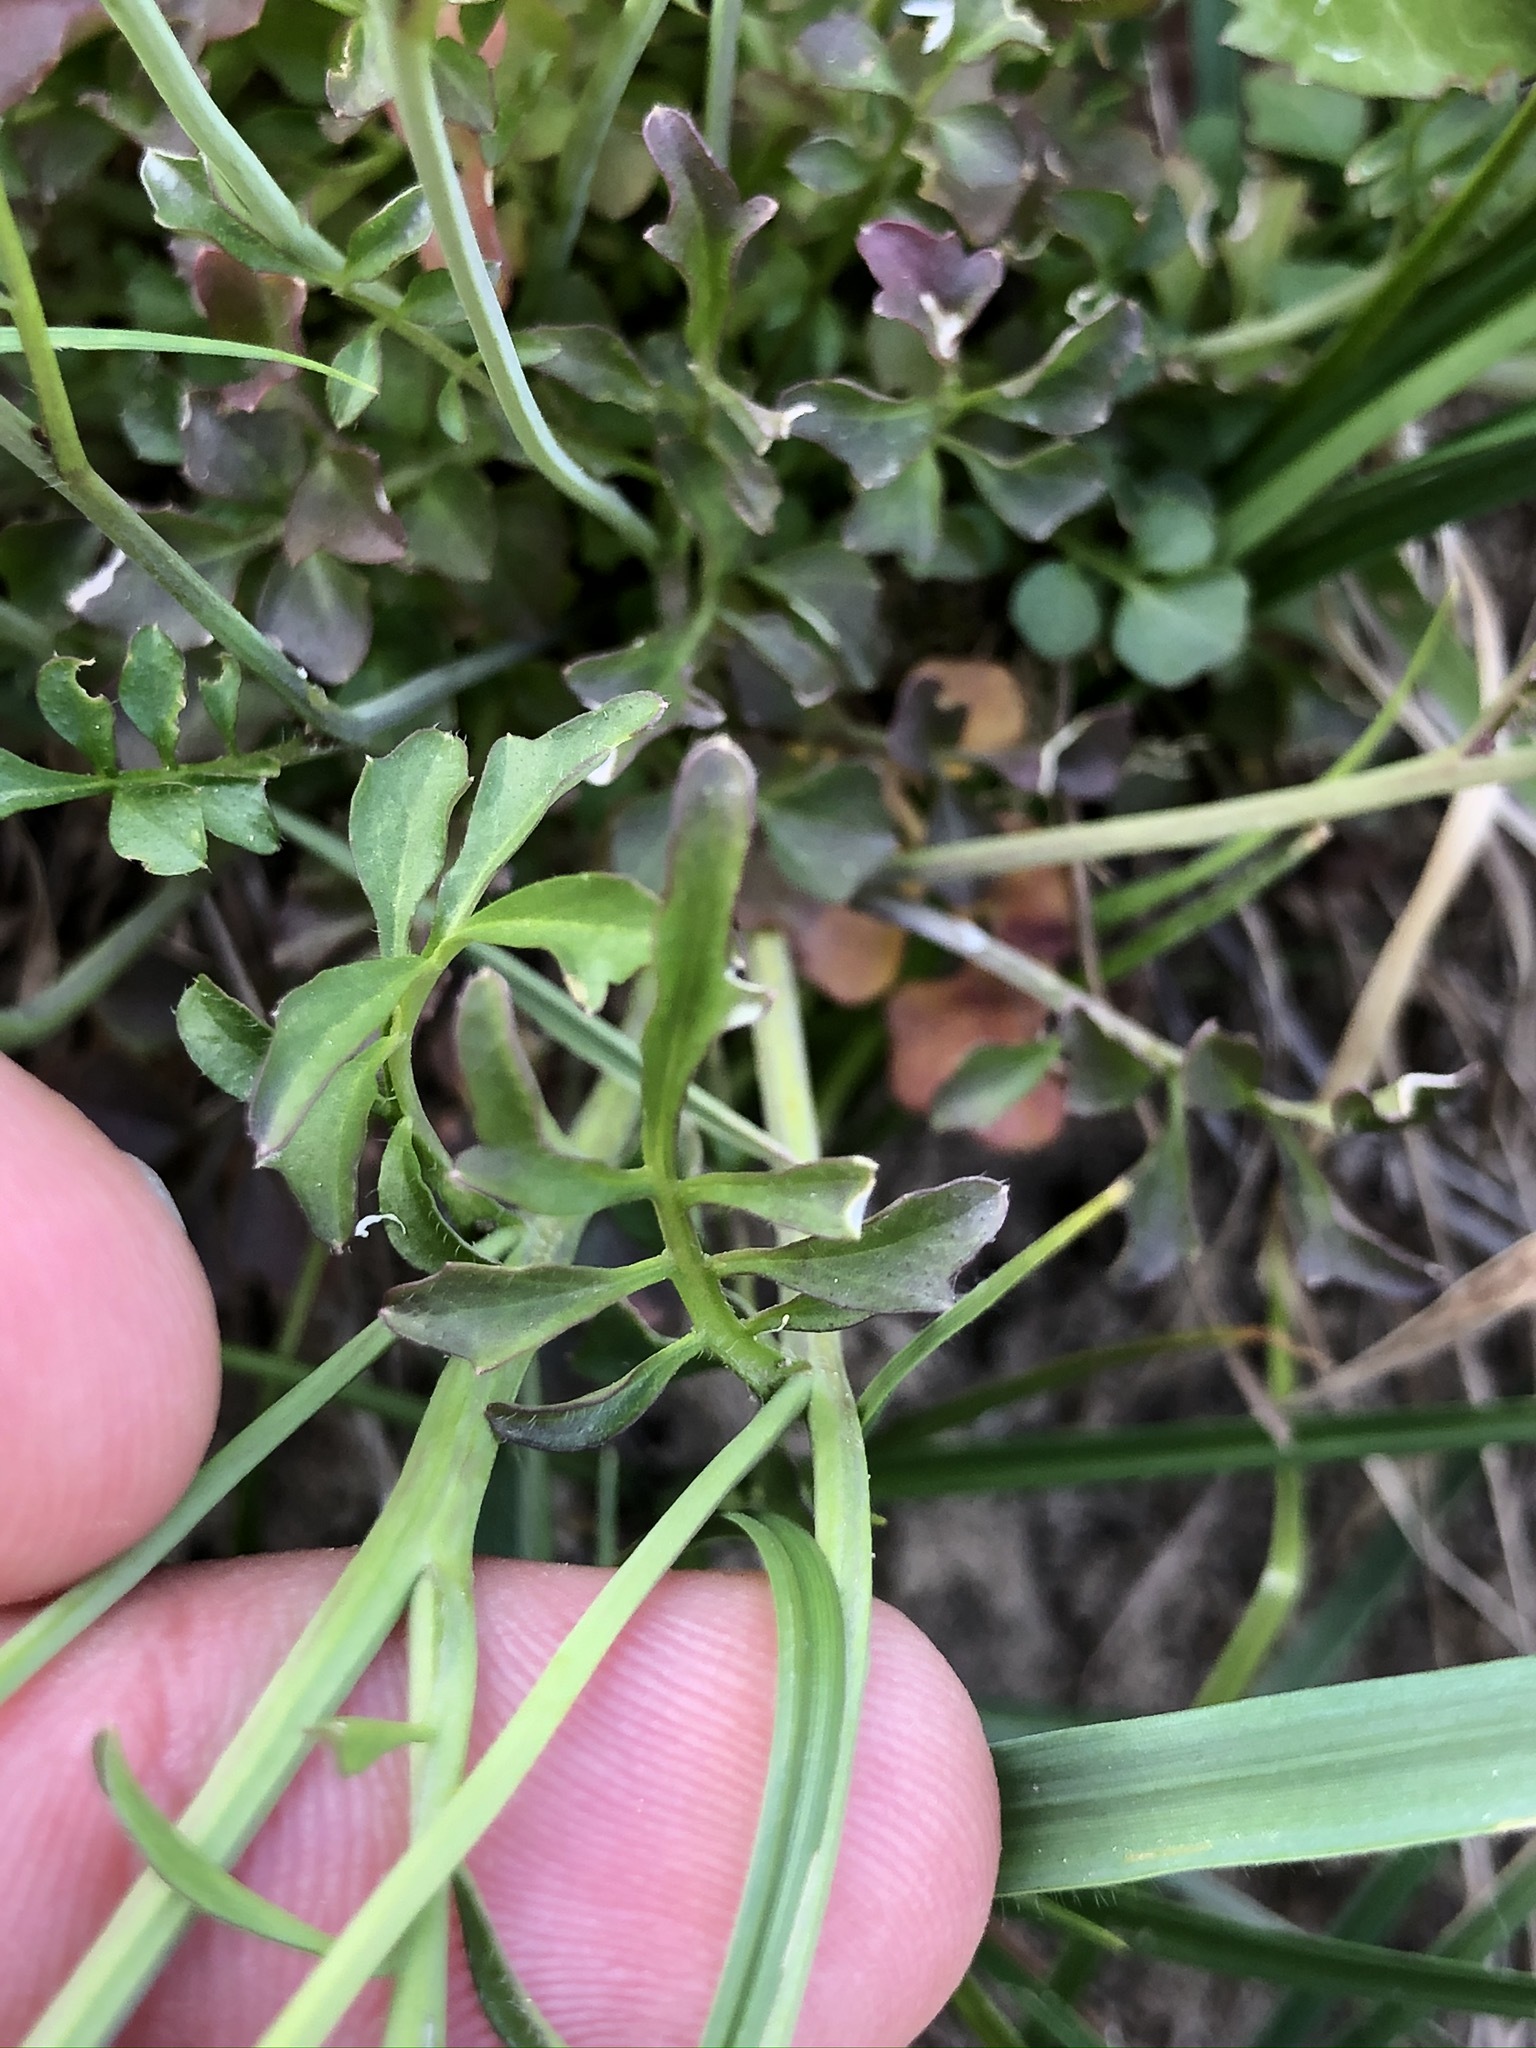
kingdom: Plantae
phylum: Tracheophyta
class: Magnoliopsida
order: Brassicales
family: Brassicaceae
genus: Cardamine
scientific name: Cardamine hirsuta
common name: Hairy bittercress
